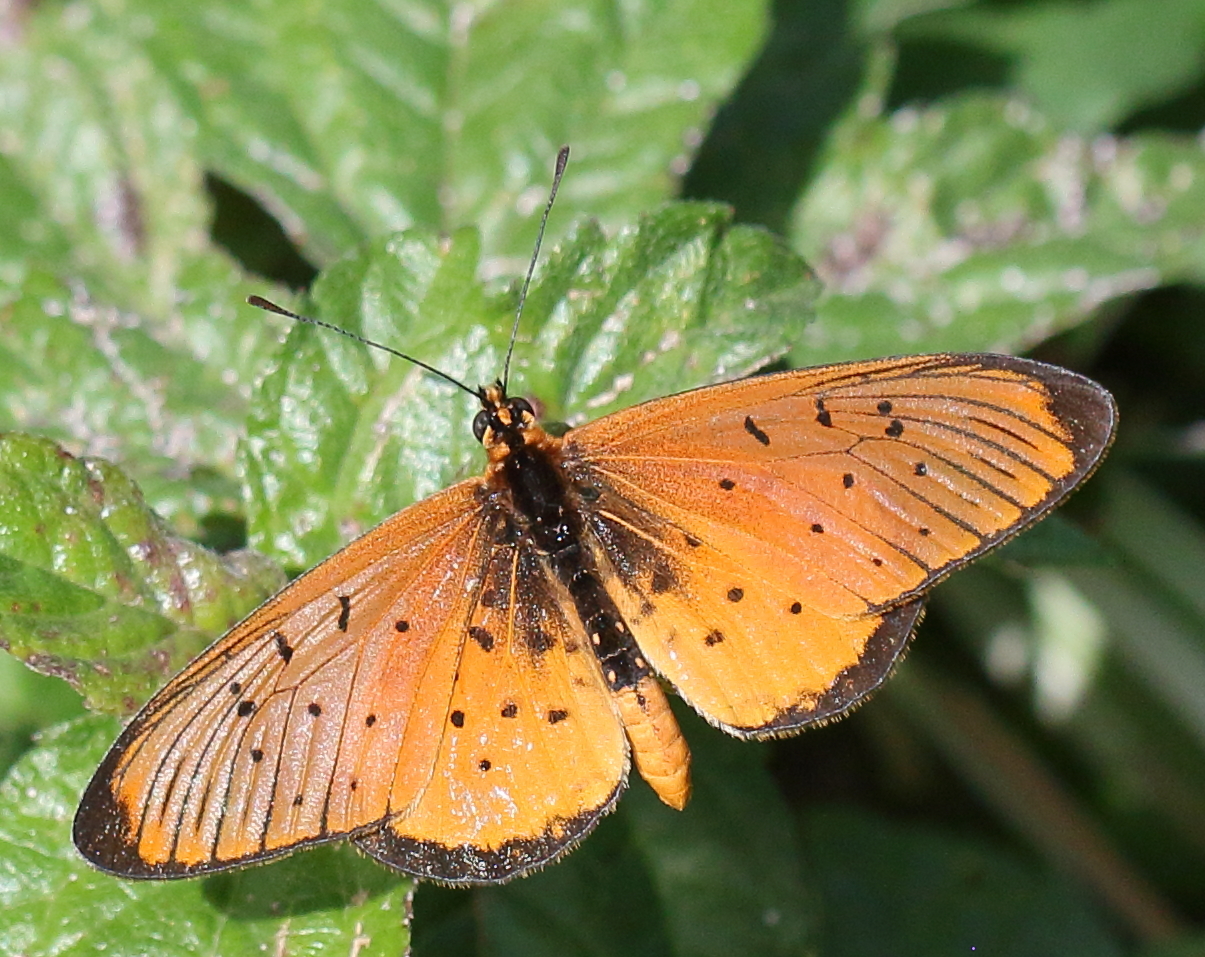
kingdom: Animalia
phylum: Arthropoda
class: Insecta
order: Lepidoptera
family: Nymphalidae
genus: Stephenia
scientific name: Stephenia
